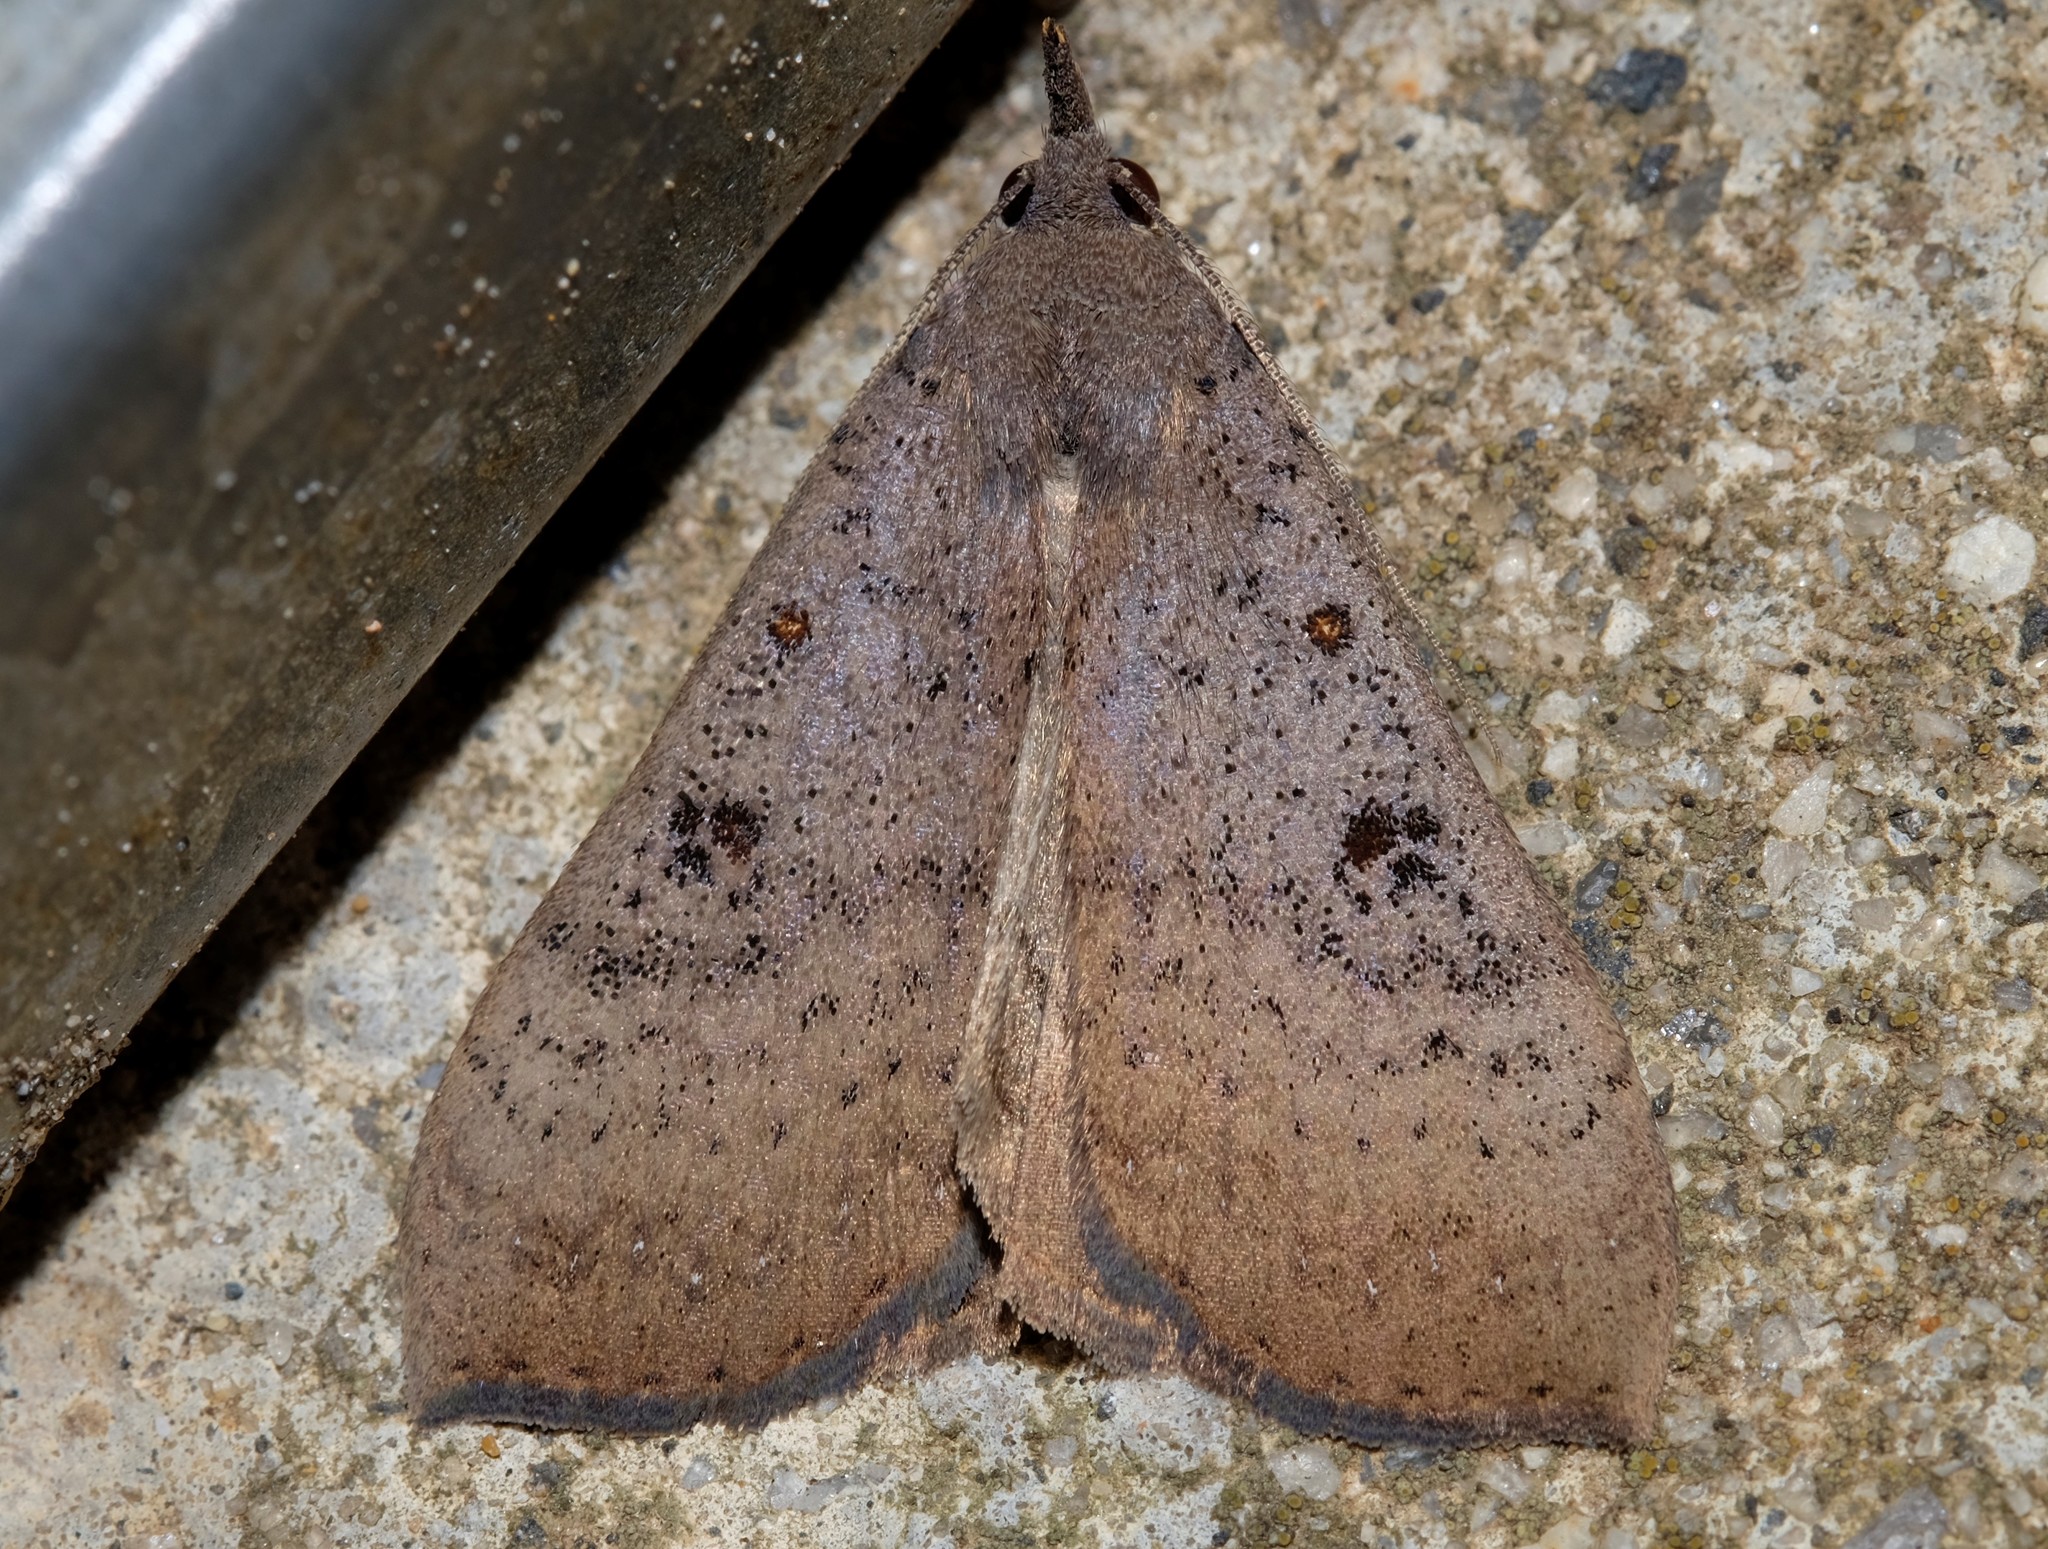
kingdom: Animalia
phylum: Arthropoda
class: Insecta
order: Lepidoptera
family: Erebidae
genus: Rhapsa
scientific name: Rhapsa suscitatalis
